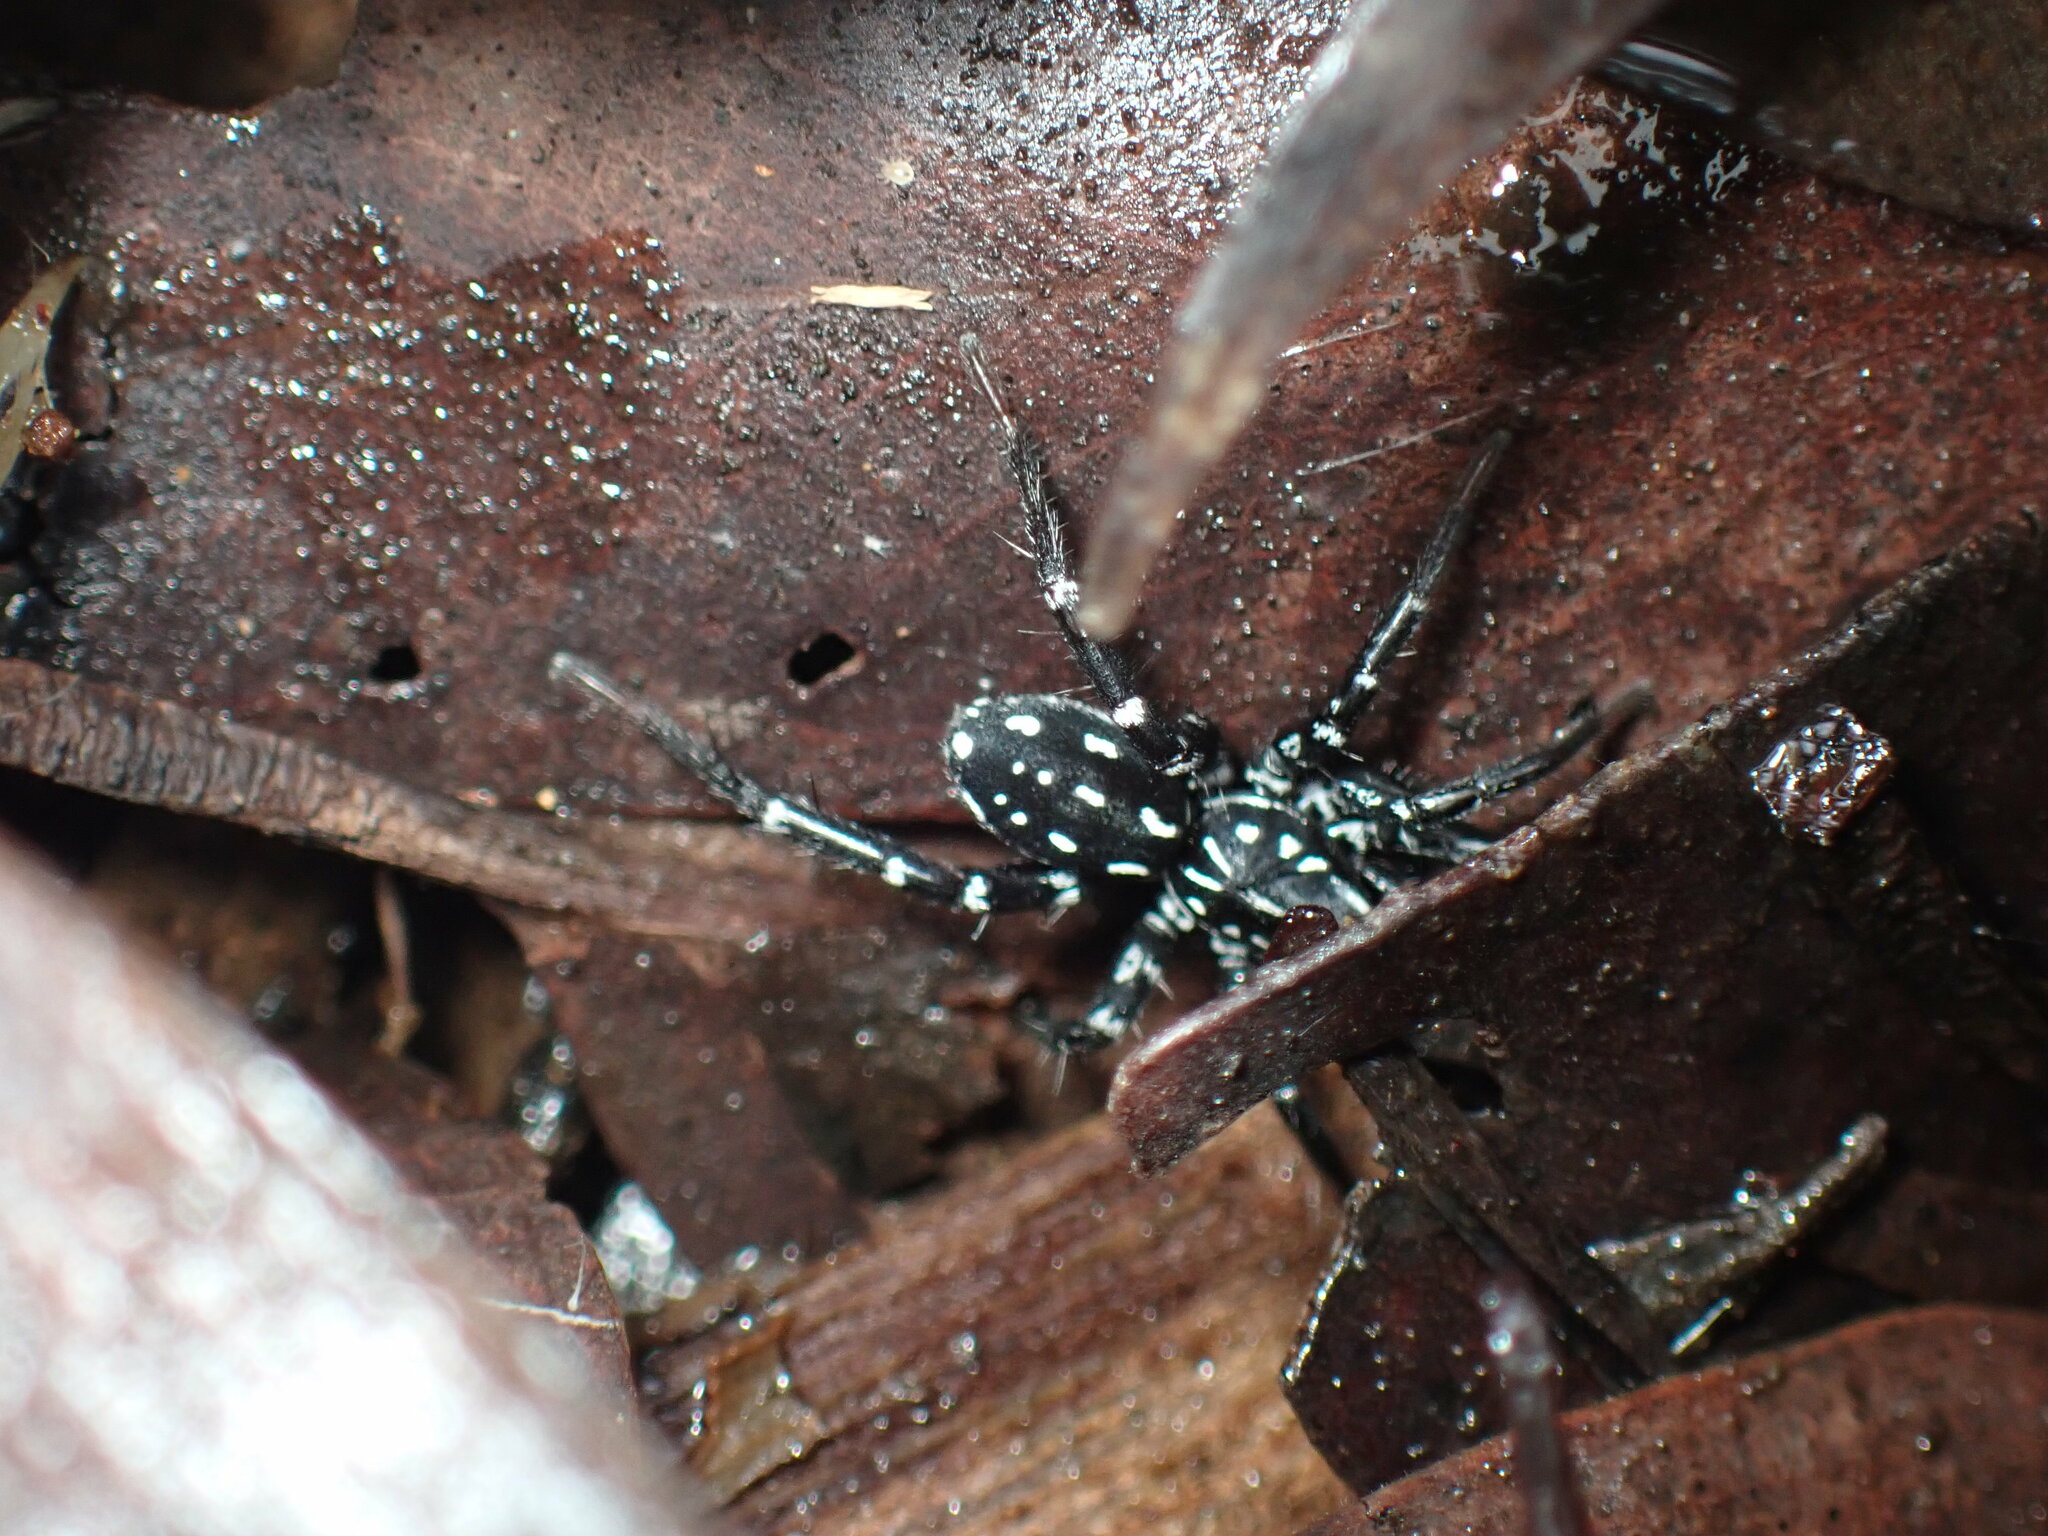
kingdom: Animalia
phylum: Arthropoda
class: Arachnida
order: Araneae
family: Corinnidae
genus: Nyssus
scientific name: Nyssus albopunctatus
